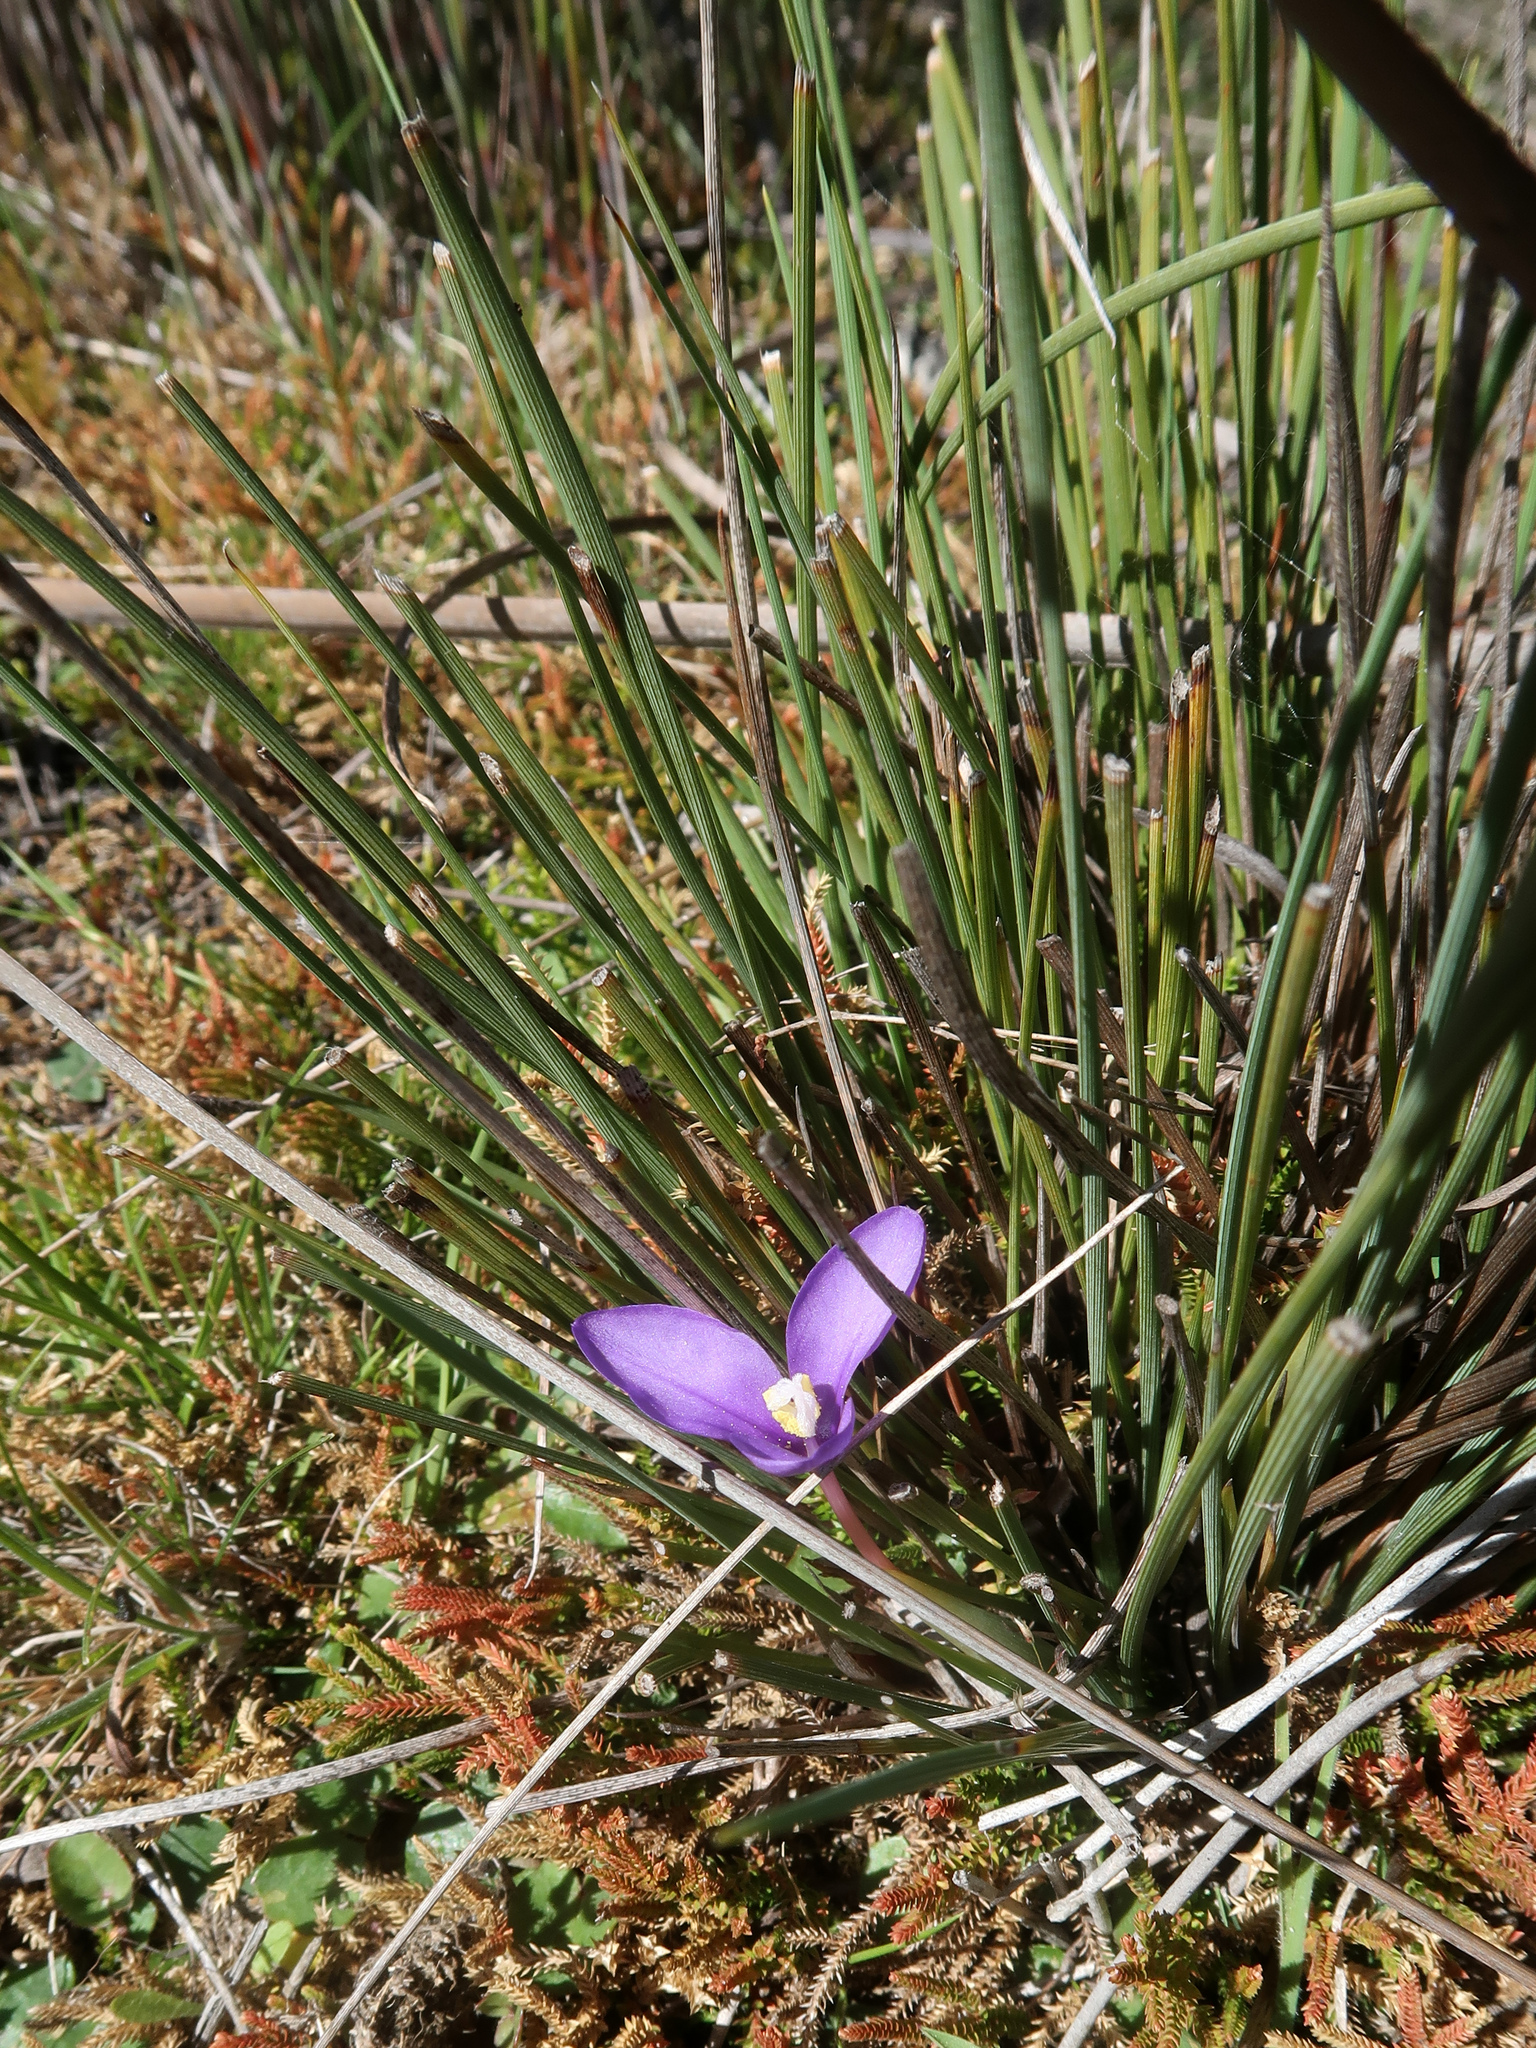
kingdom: Plantae
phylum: Tracheophyta
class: Liliopsida
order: Asparagales
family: Iridaceae
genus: Patersonia
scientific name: Patersonia fragilis
